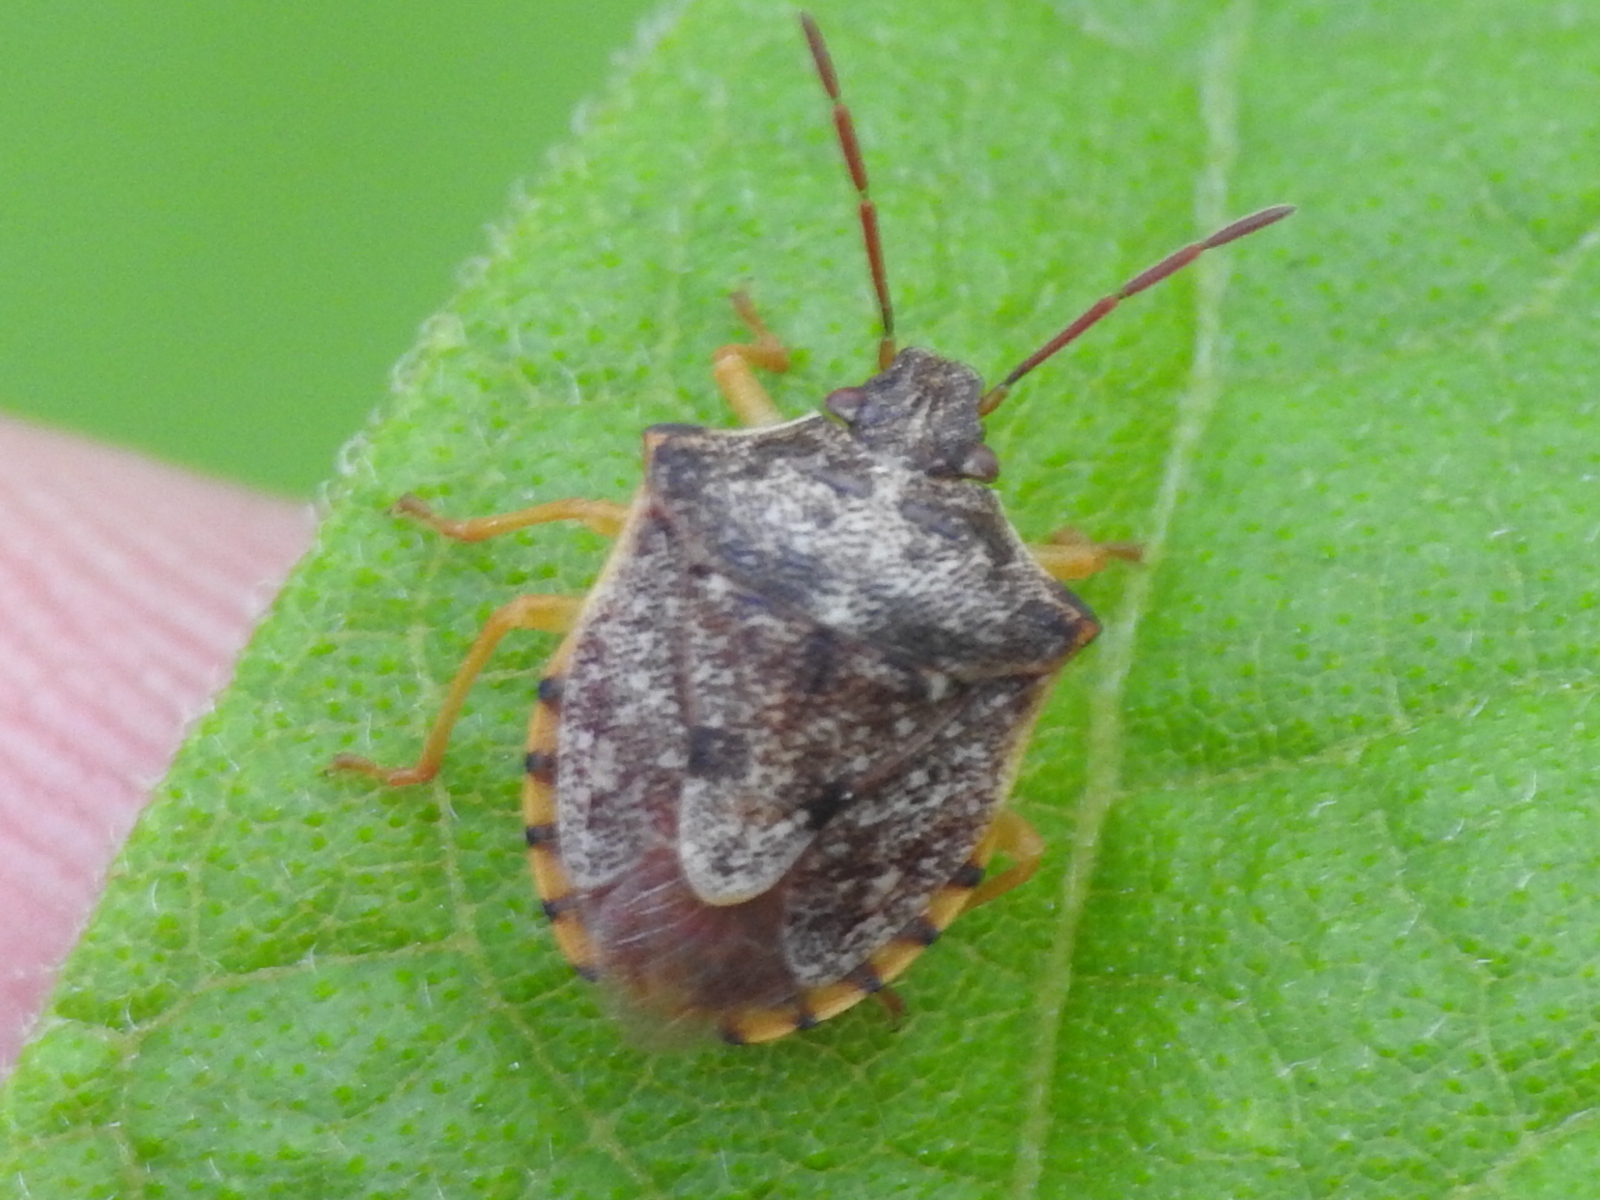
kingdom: Animalia
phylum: Arthropoda
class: Insecta
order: Hemiptera
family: Pentatomidae
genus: Dendrocoris
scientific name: Dendrocoris humeralis
